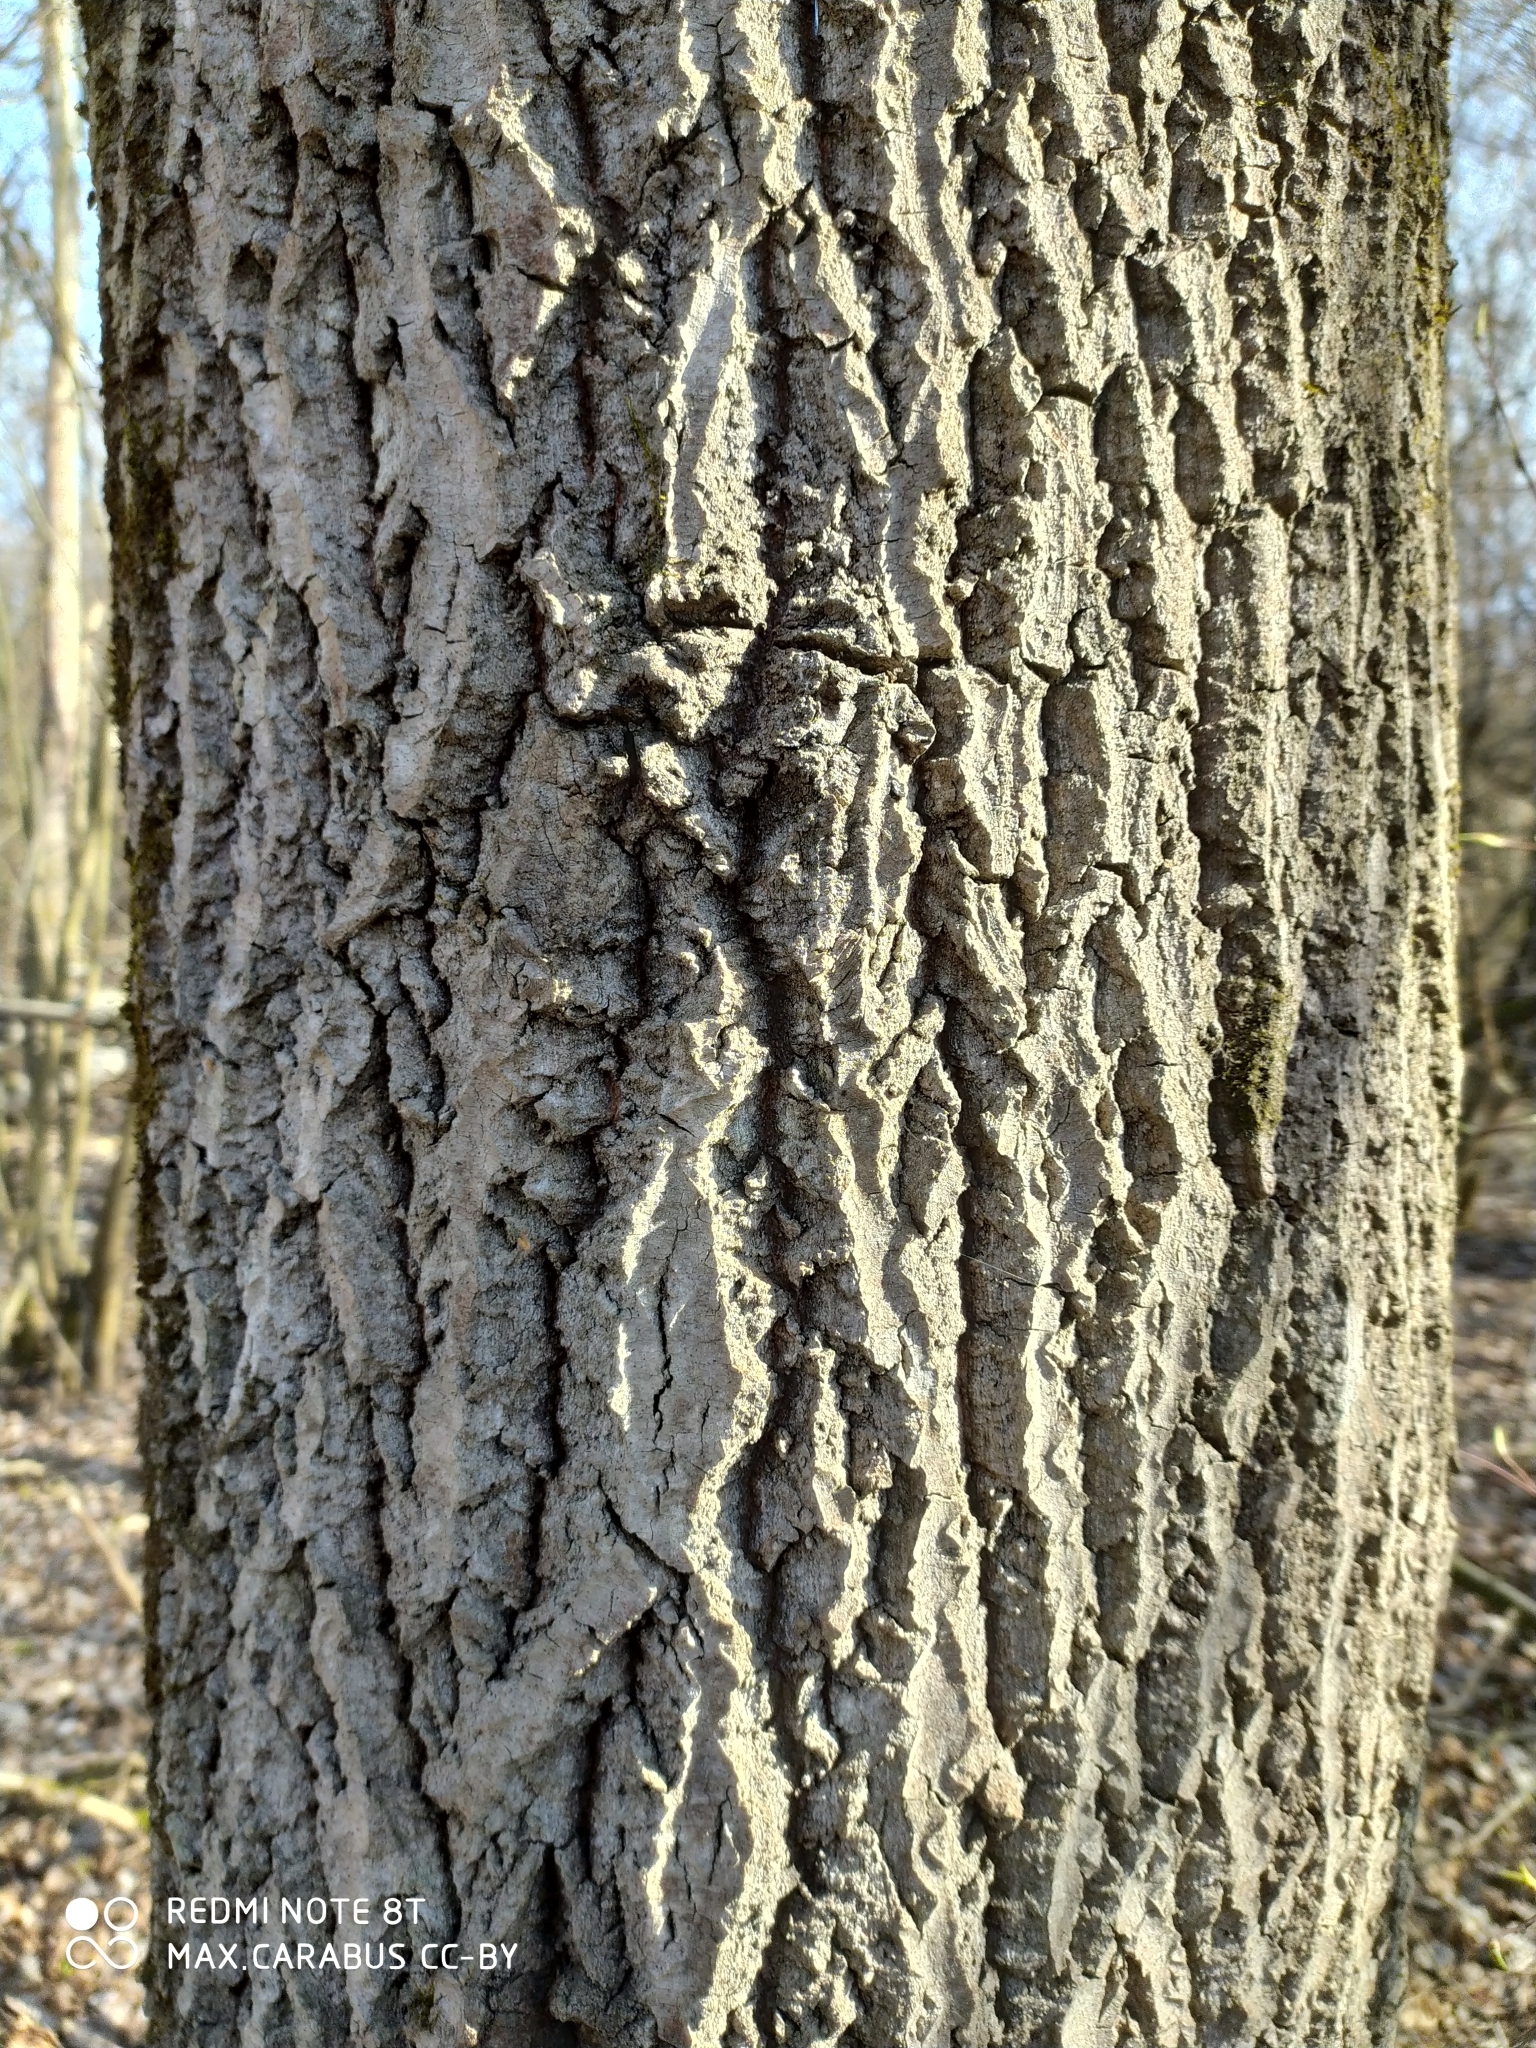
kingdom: Plantae
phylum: Tracheophyta
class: Magnoliopsida
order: Malpighiales
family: Salicaceae
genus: Populus
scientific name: Populus tremula
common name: European aspen
